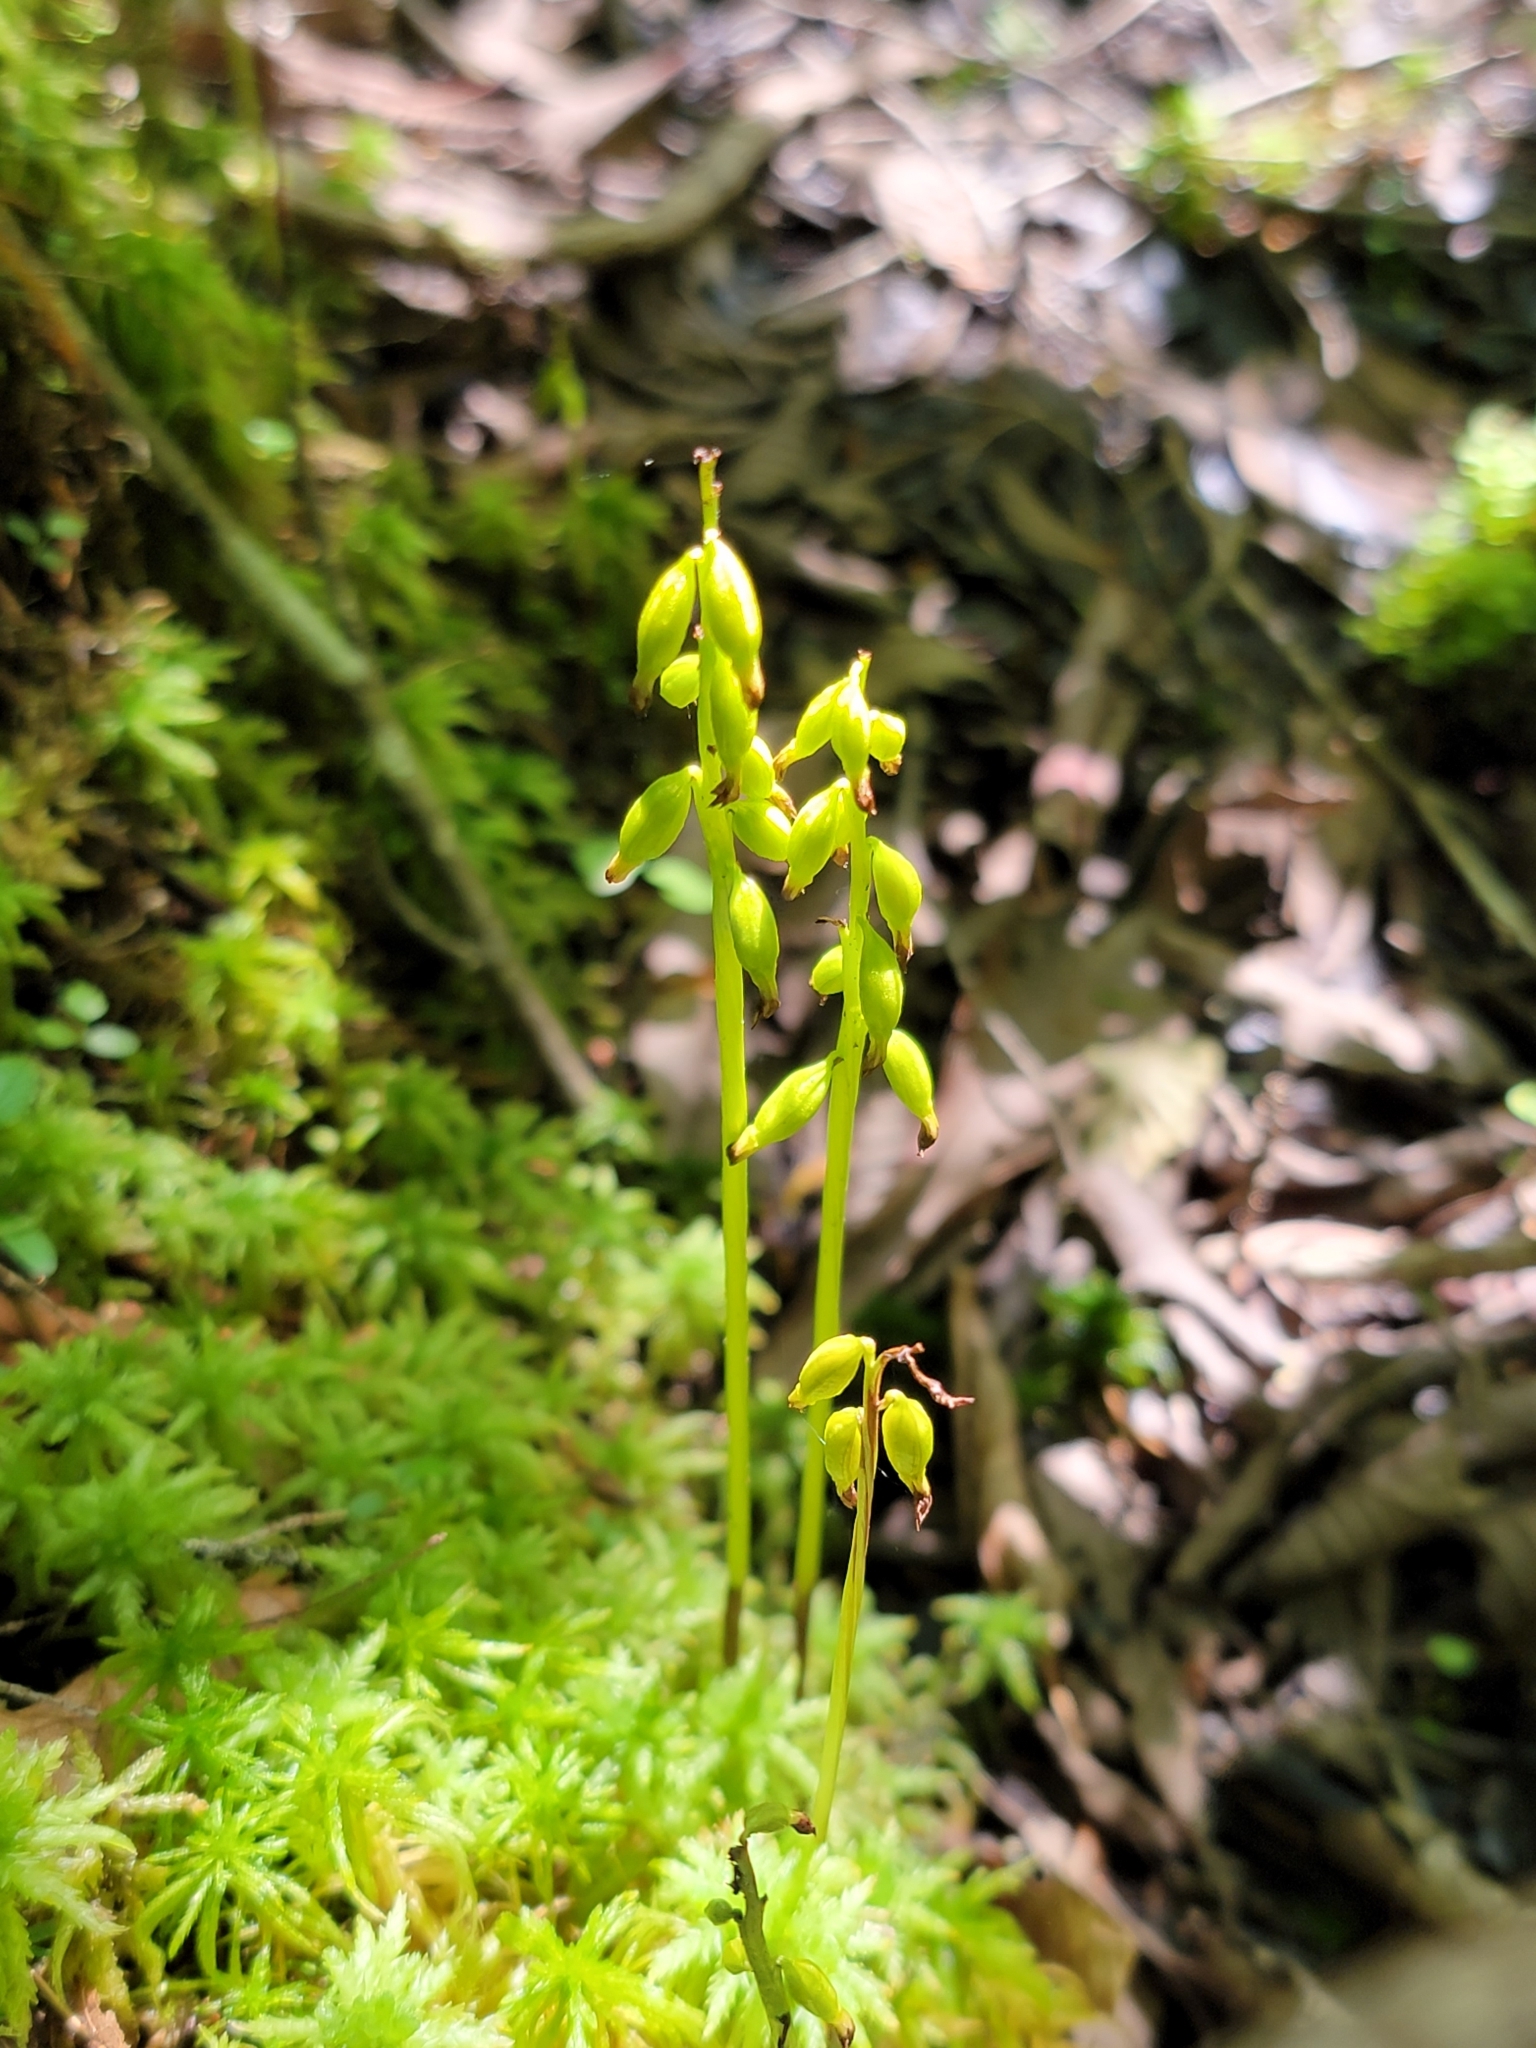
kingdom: Plantae
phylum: Tracheophyta
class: Liliopsida
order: Asparagales
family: Orchidaceae
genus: Corallorhiza
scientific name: Corallorhiza trifida
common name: Yellow coralroot
